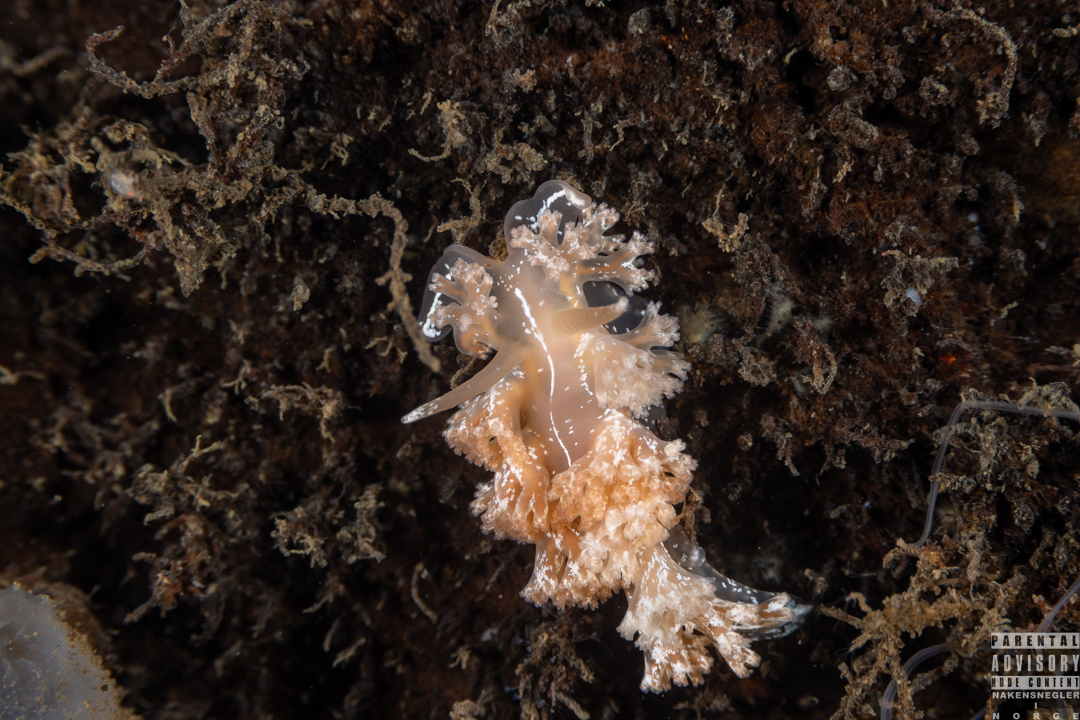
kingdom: Animalia
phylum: Mollusca
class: Gastropoda
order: Nudibranchia
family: Heroidae
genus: Hero
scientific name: Hero formosa
